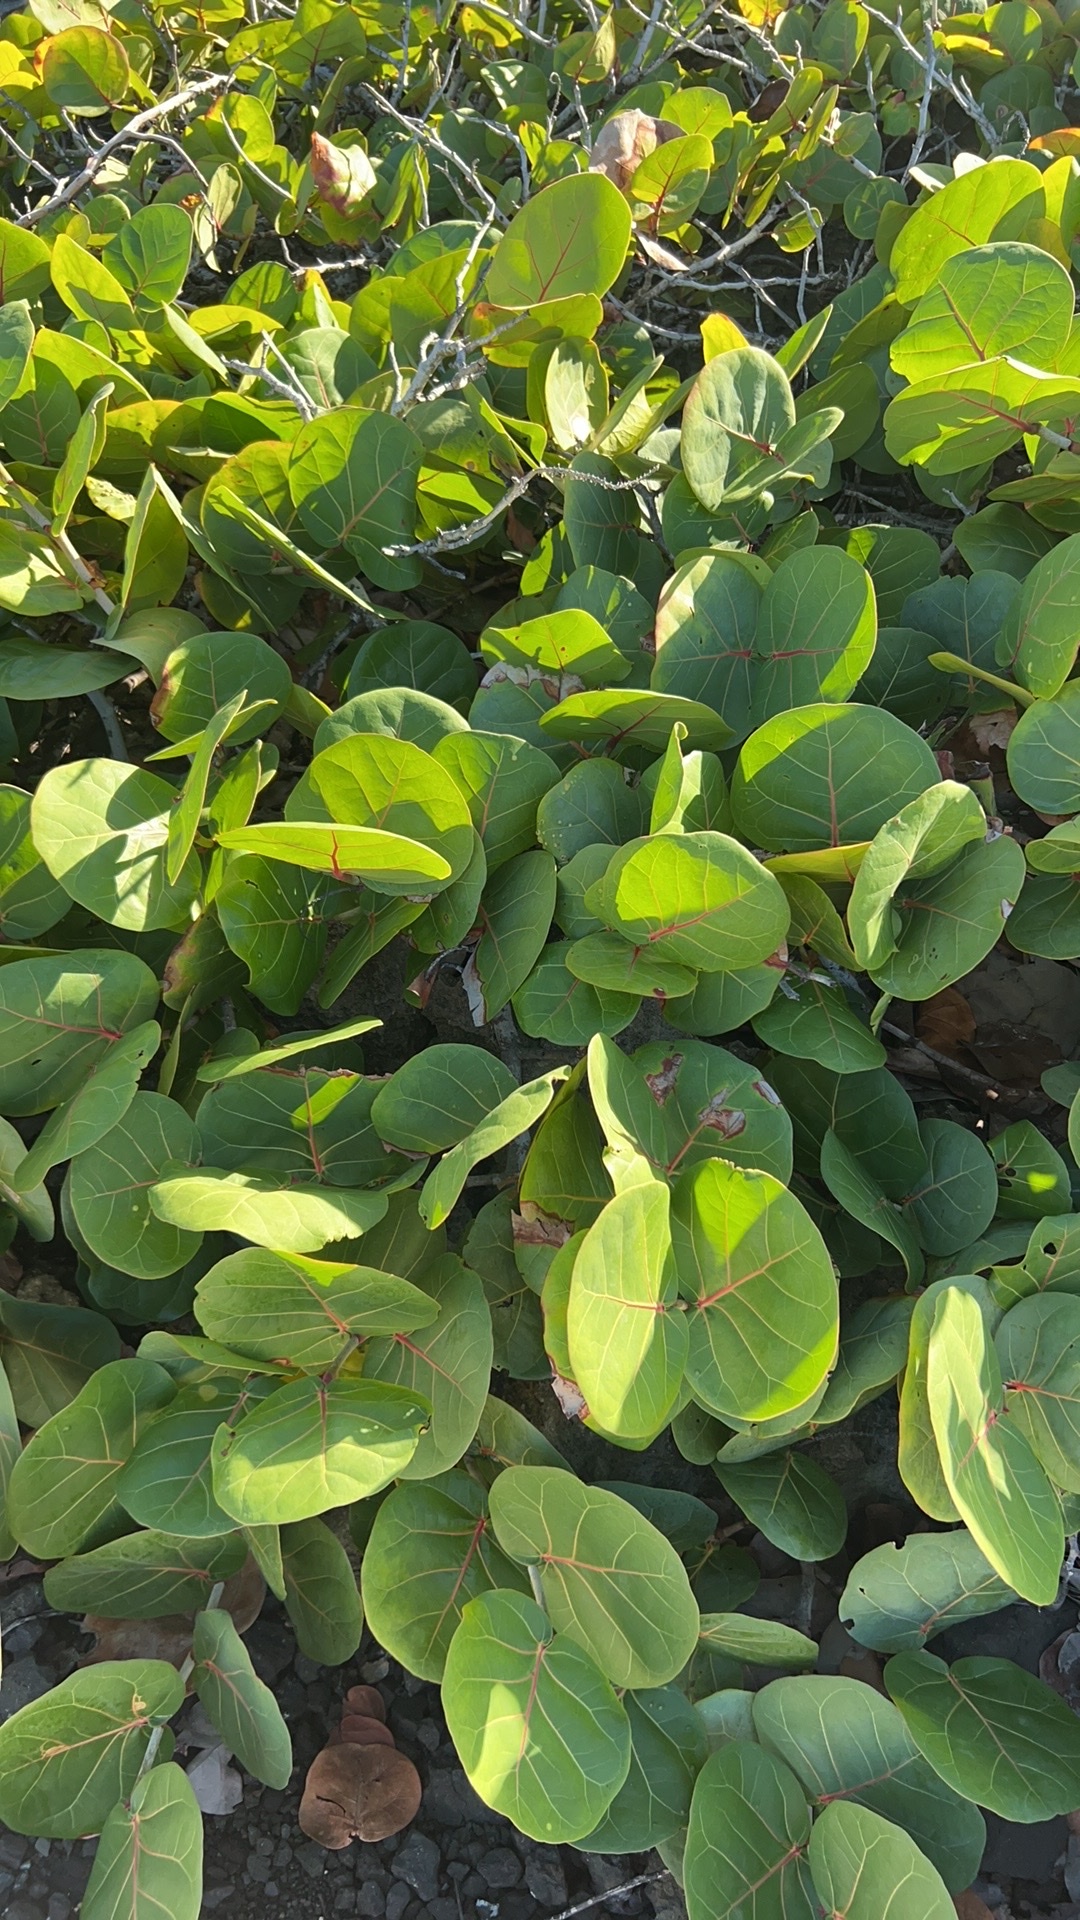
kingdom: Plantae
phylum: Tracheophyta
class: Magnoliopsida
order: Caryophyllales
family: Polygonaceae
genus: Coccoloba
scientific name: Coccoloba uvifera
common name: Seagrape
